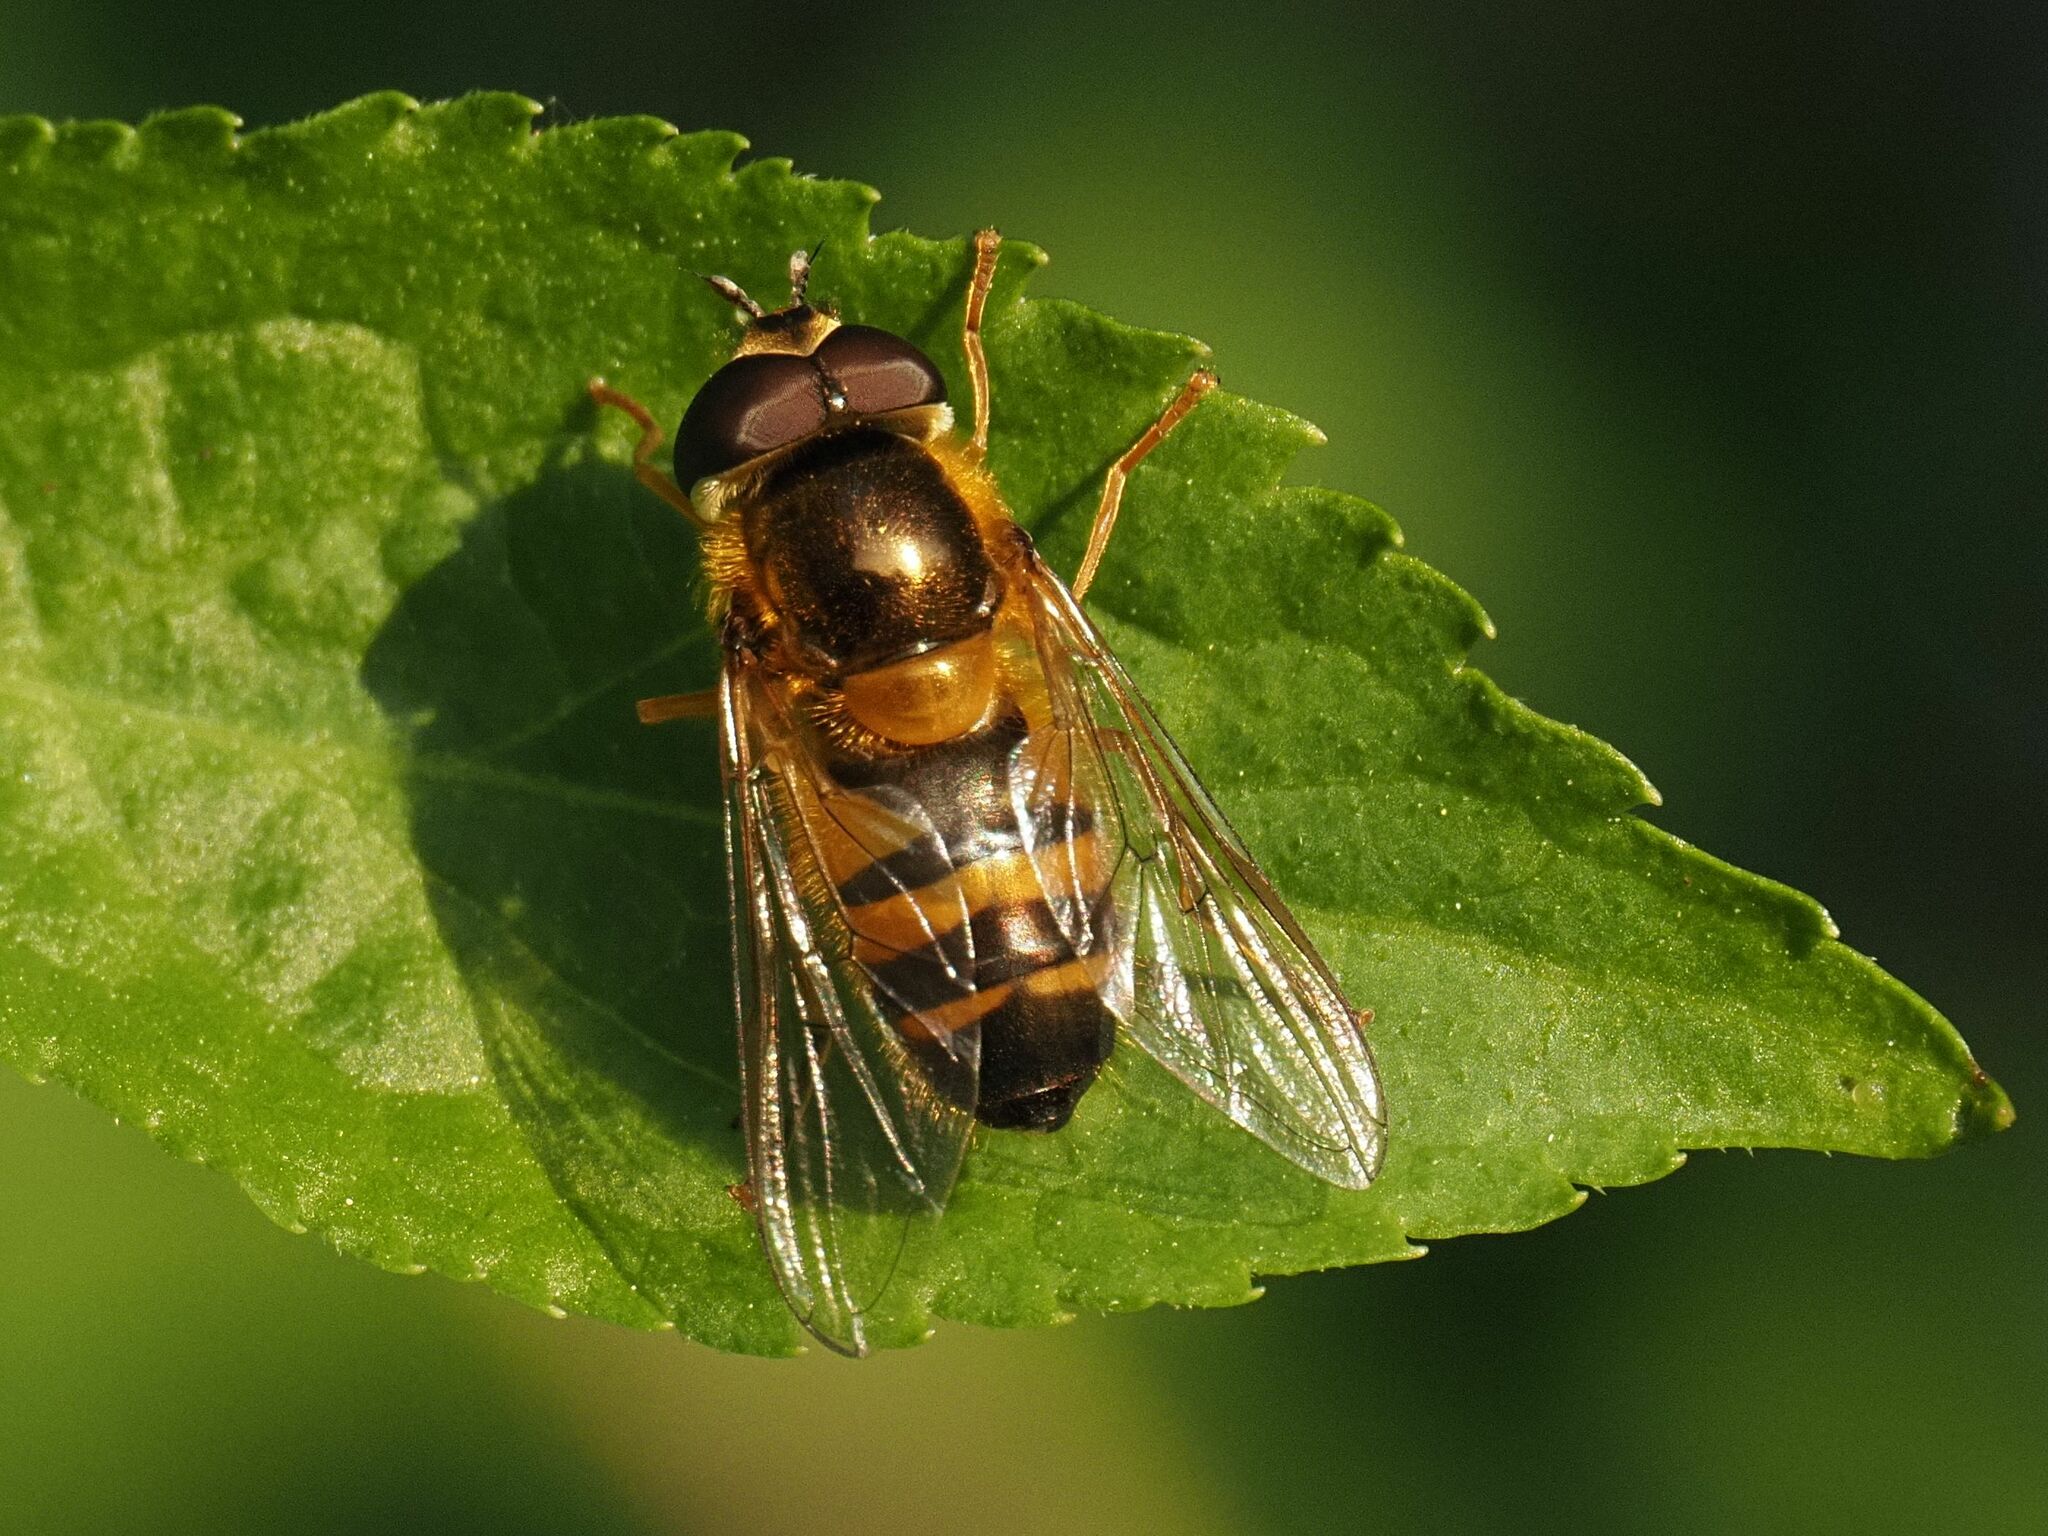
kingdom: Animalia
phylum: Arthropoda
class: Insecta
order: Diptera
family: Syrphidae
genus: Epistrophe
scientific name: Epistrophe eligans
